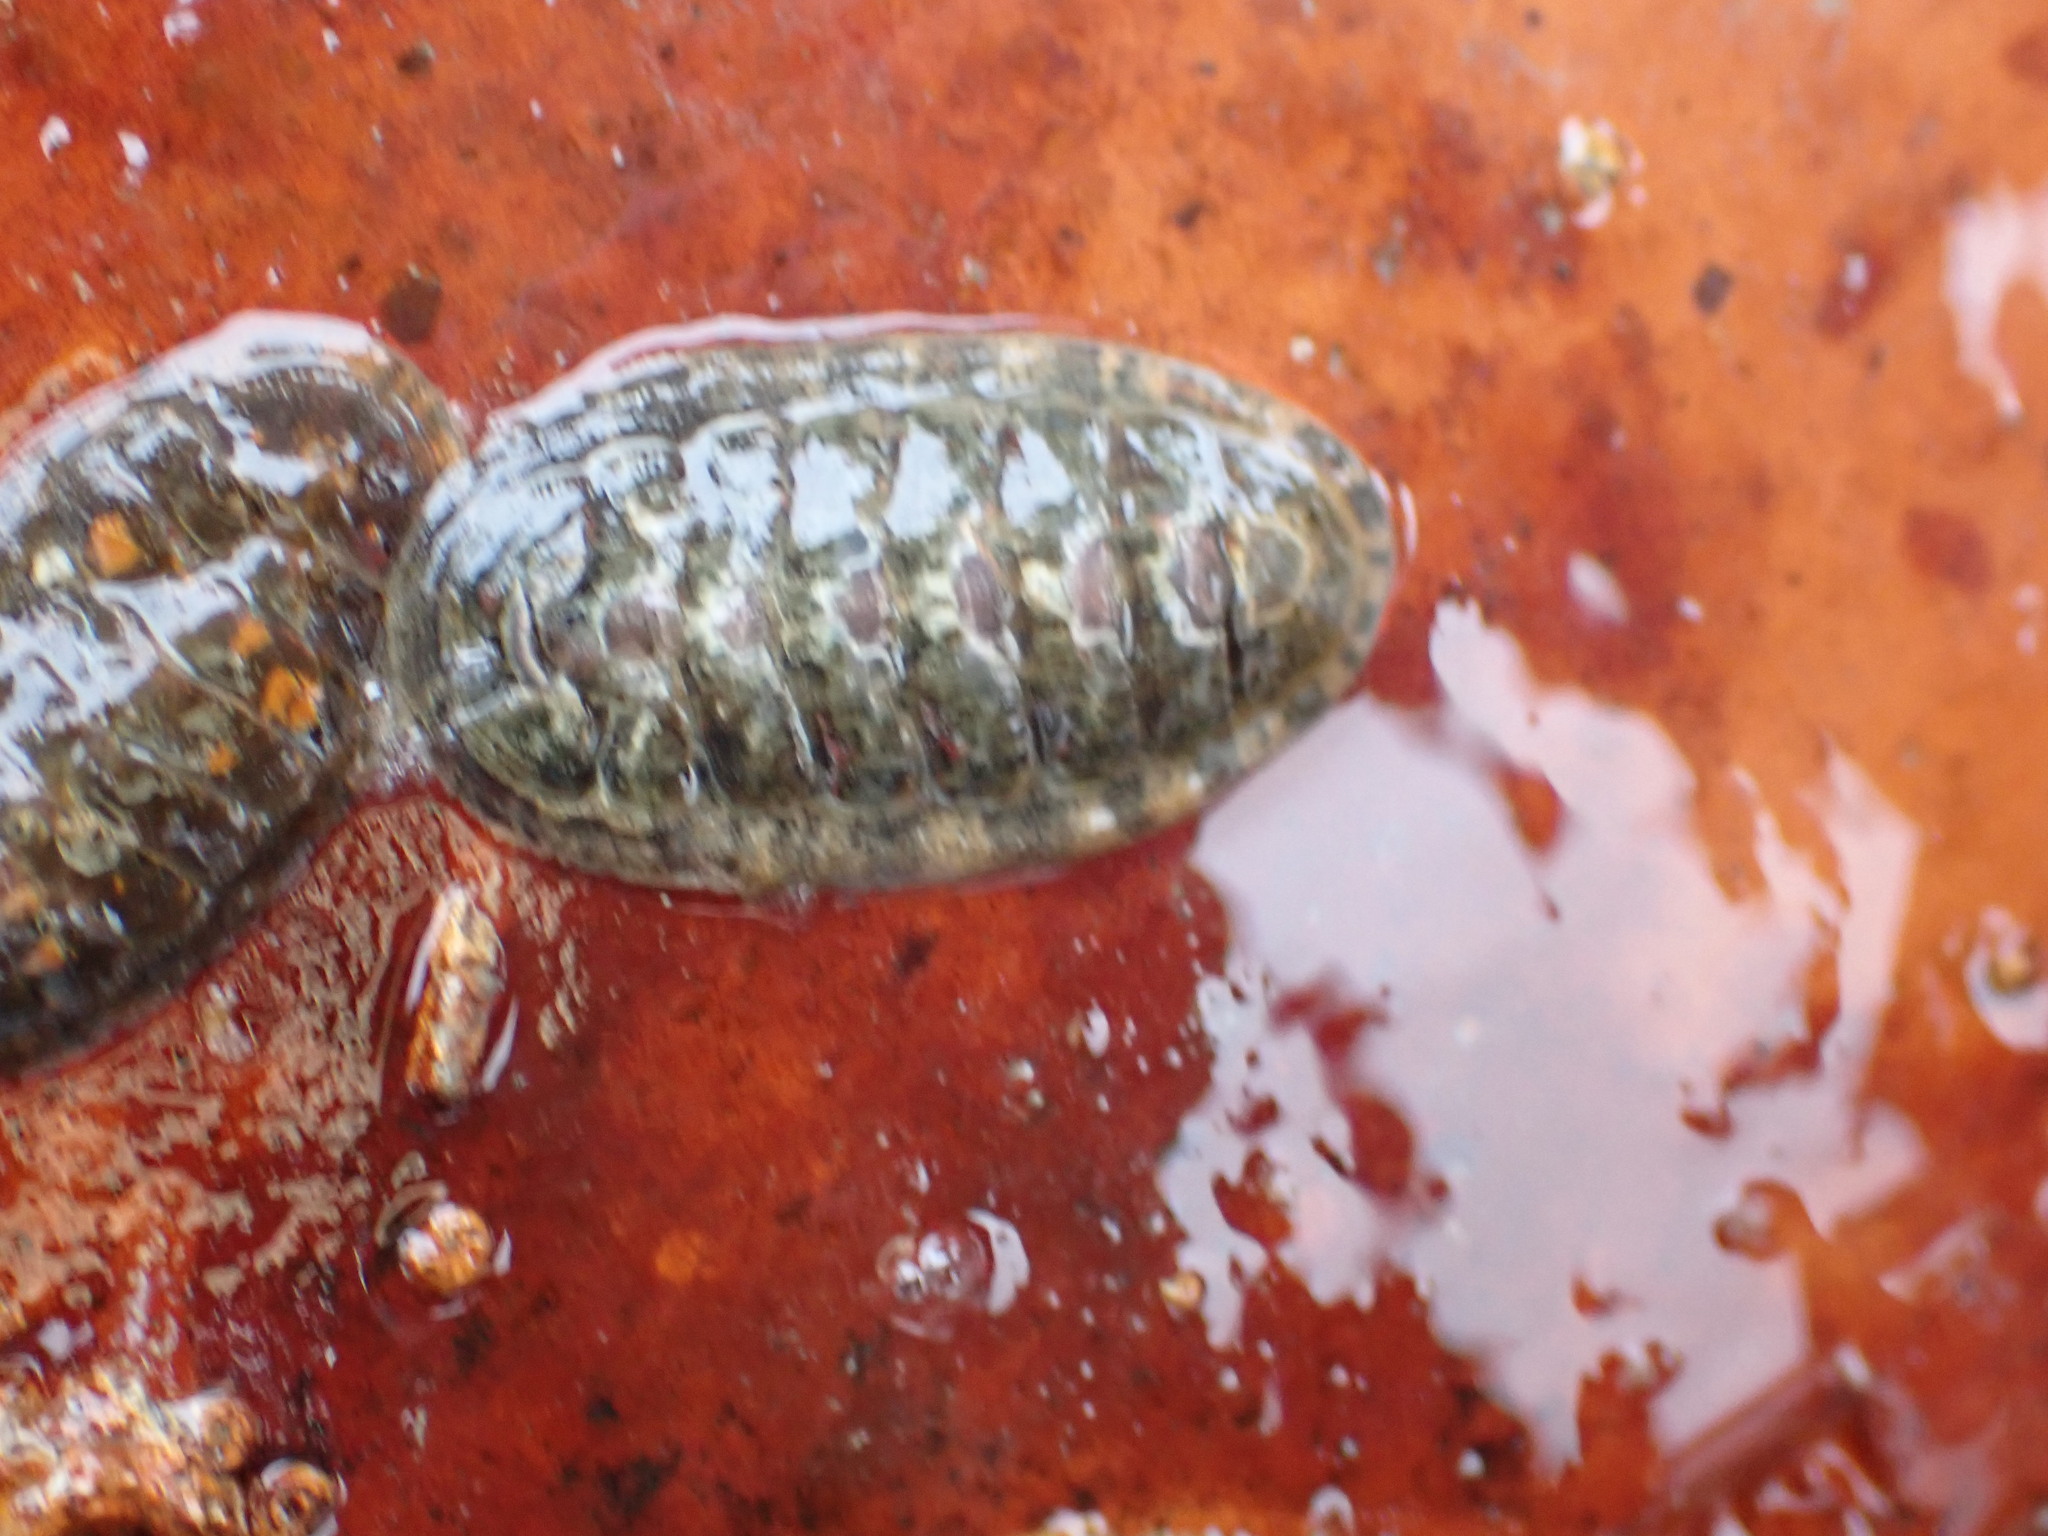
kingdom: Animalia
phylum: Mollusca
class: Polyplacophora
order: Chitonida
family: Ischnochitonidae
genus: Ischnochiton
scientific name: Ischnochiton maorianus
